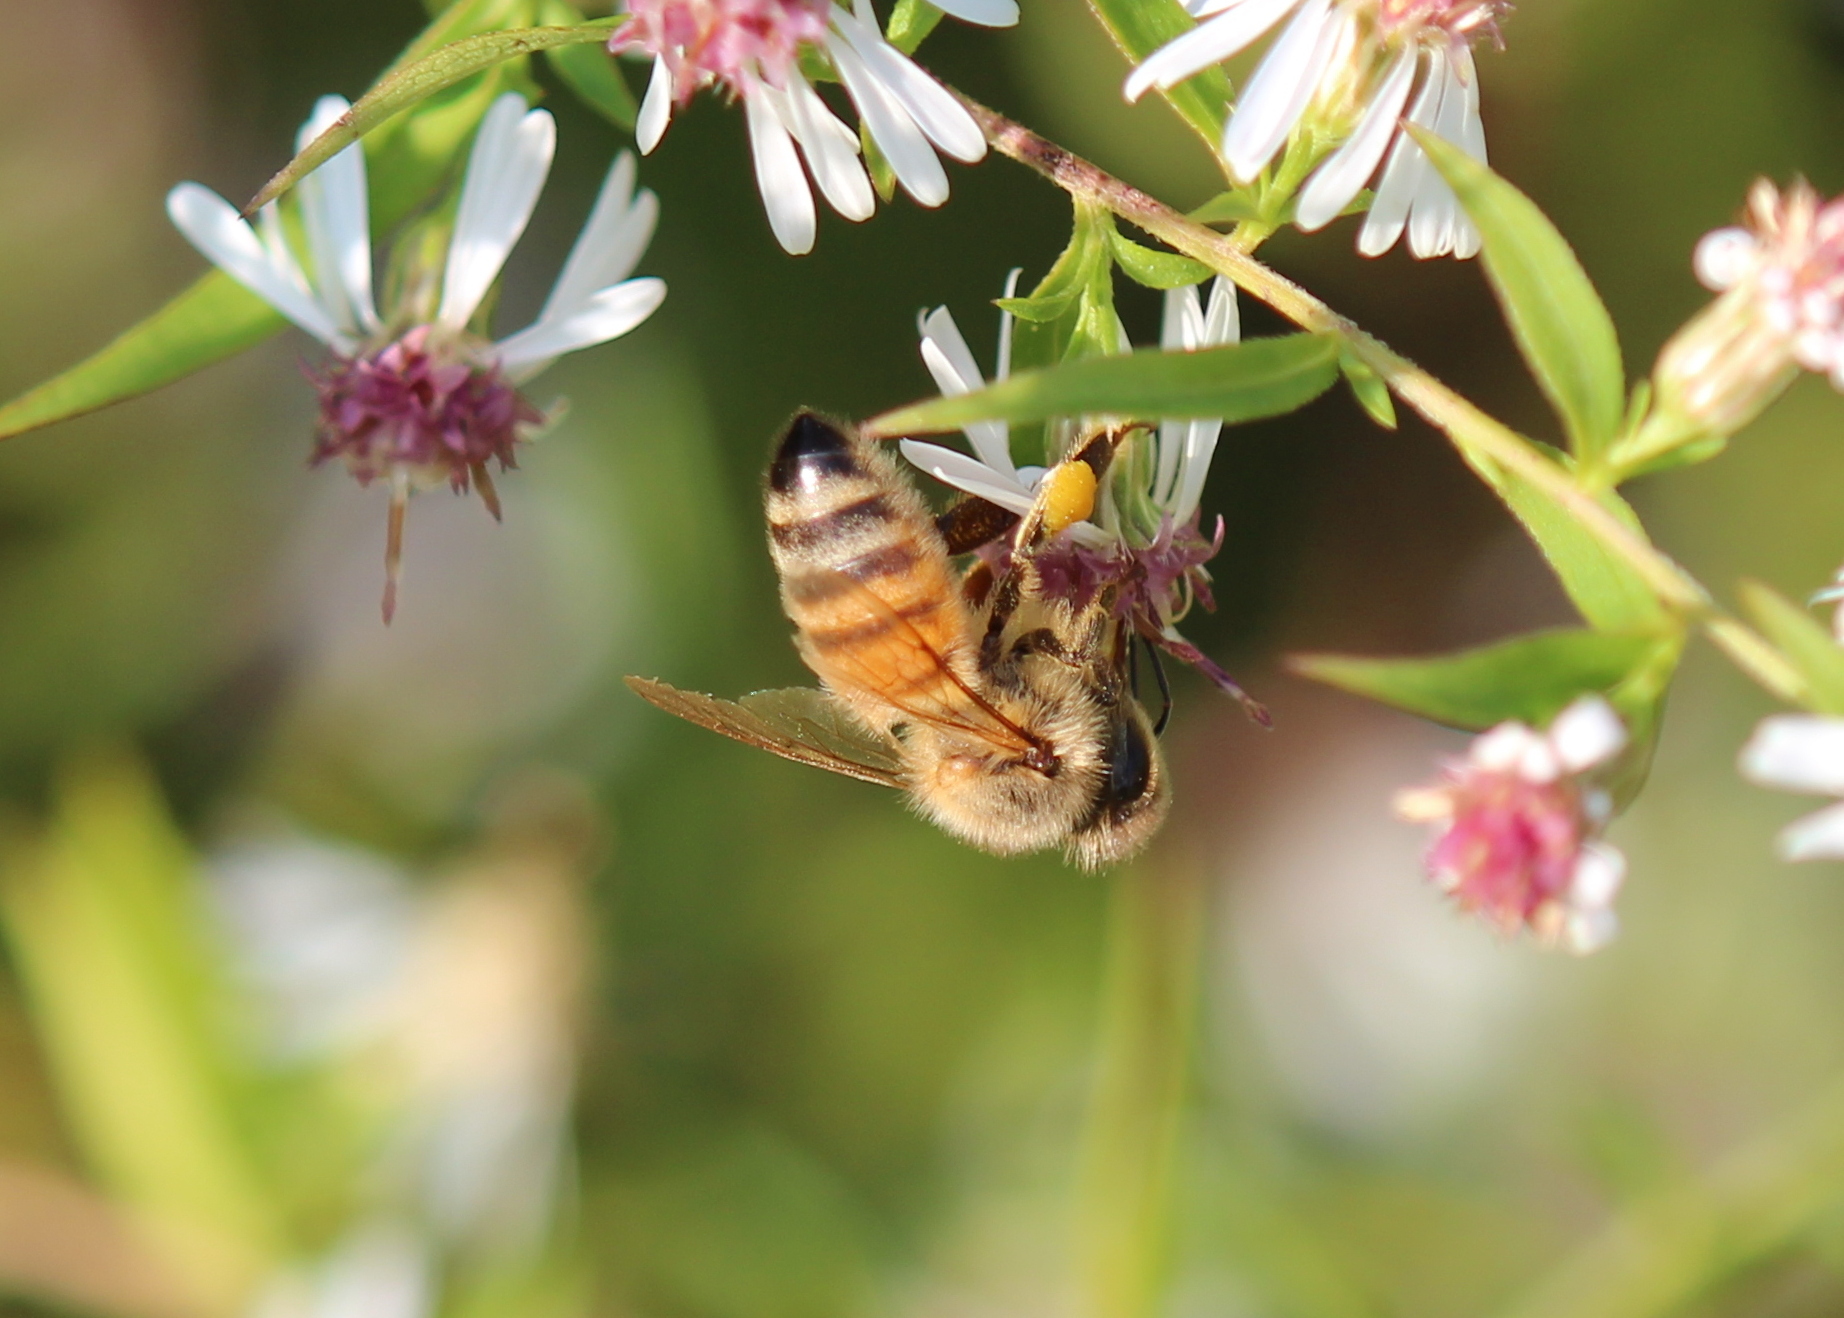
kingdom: Animalia
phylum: Arthropoda
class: Insecta
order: Hymenoptera
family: Apidae
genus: Apis
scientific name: Apis mellifera
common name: Honey bee
